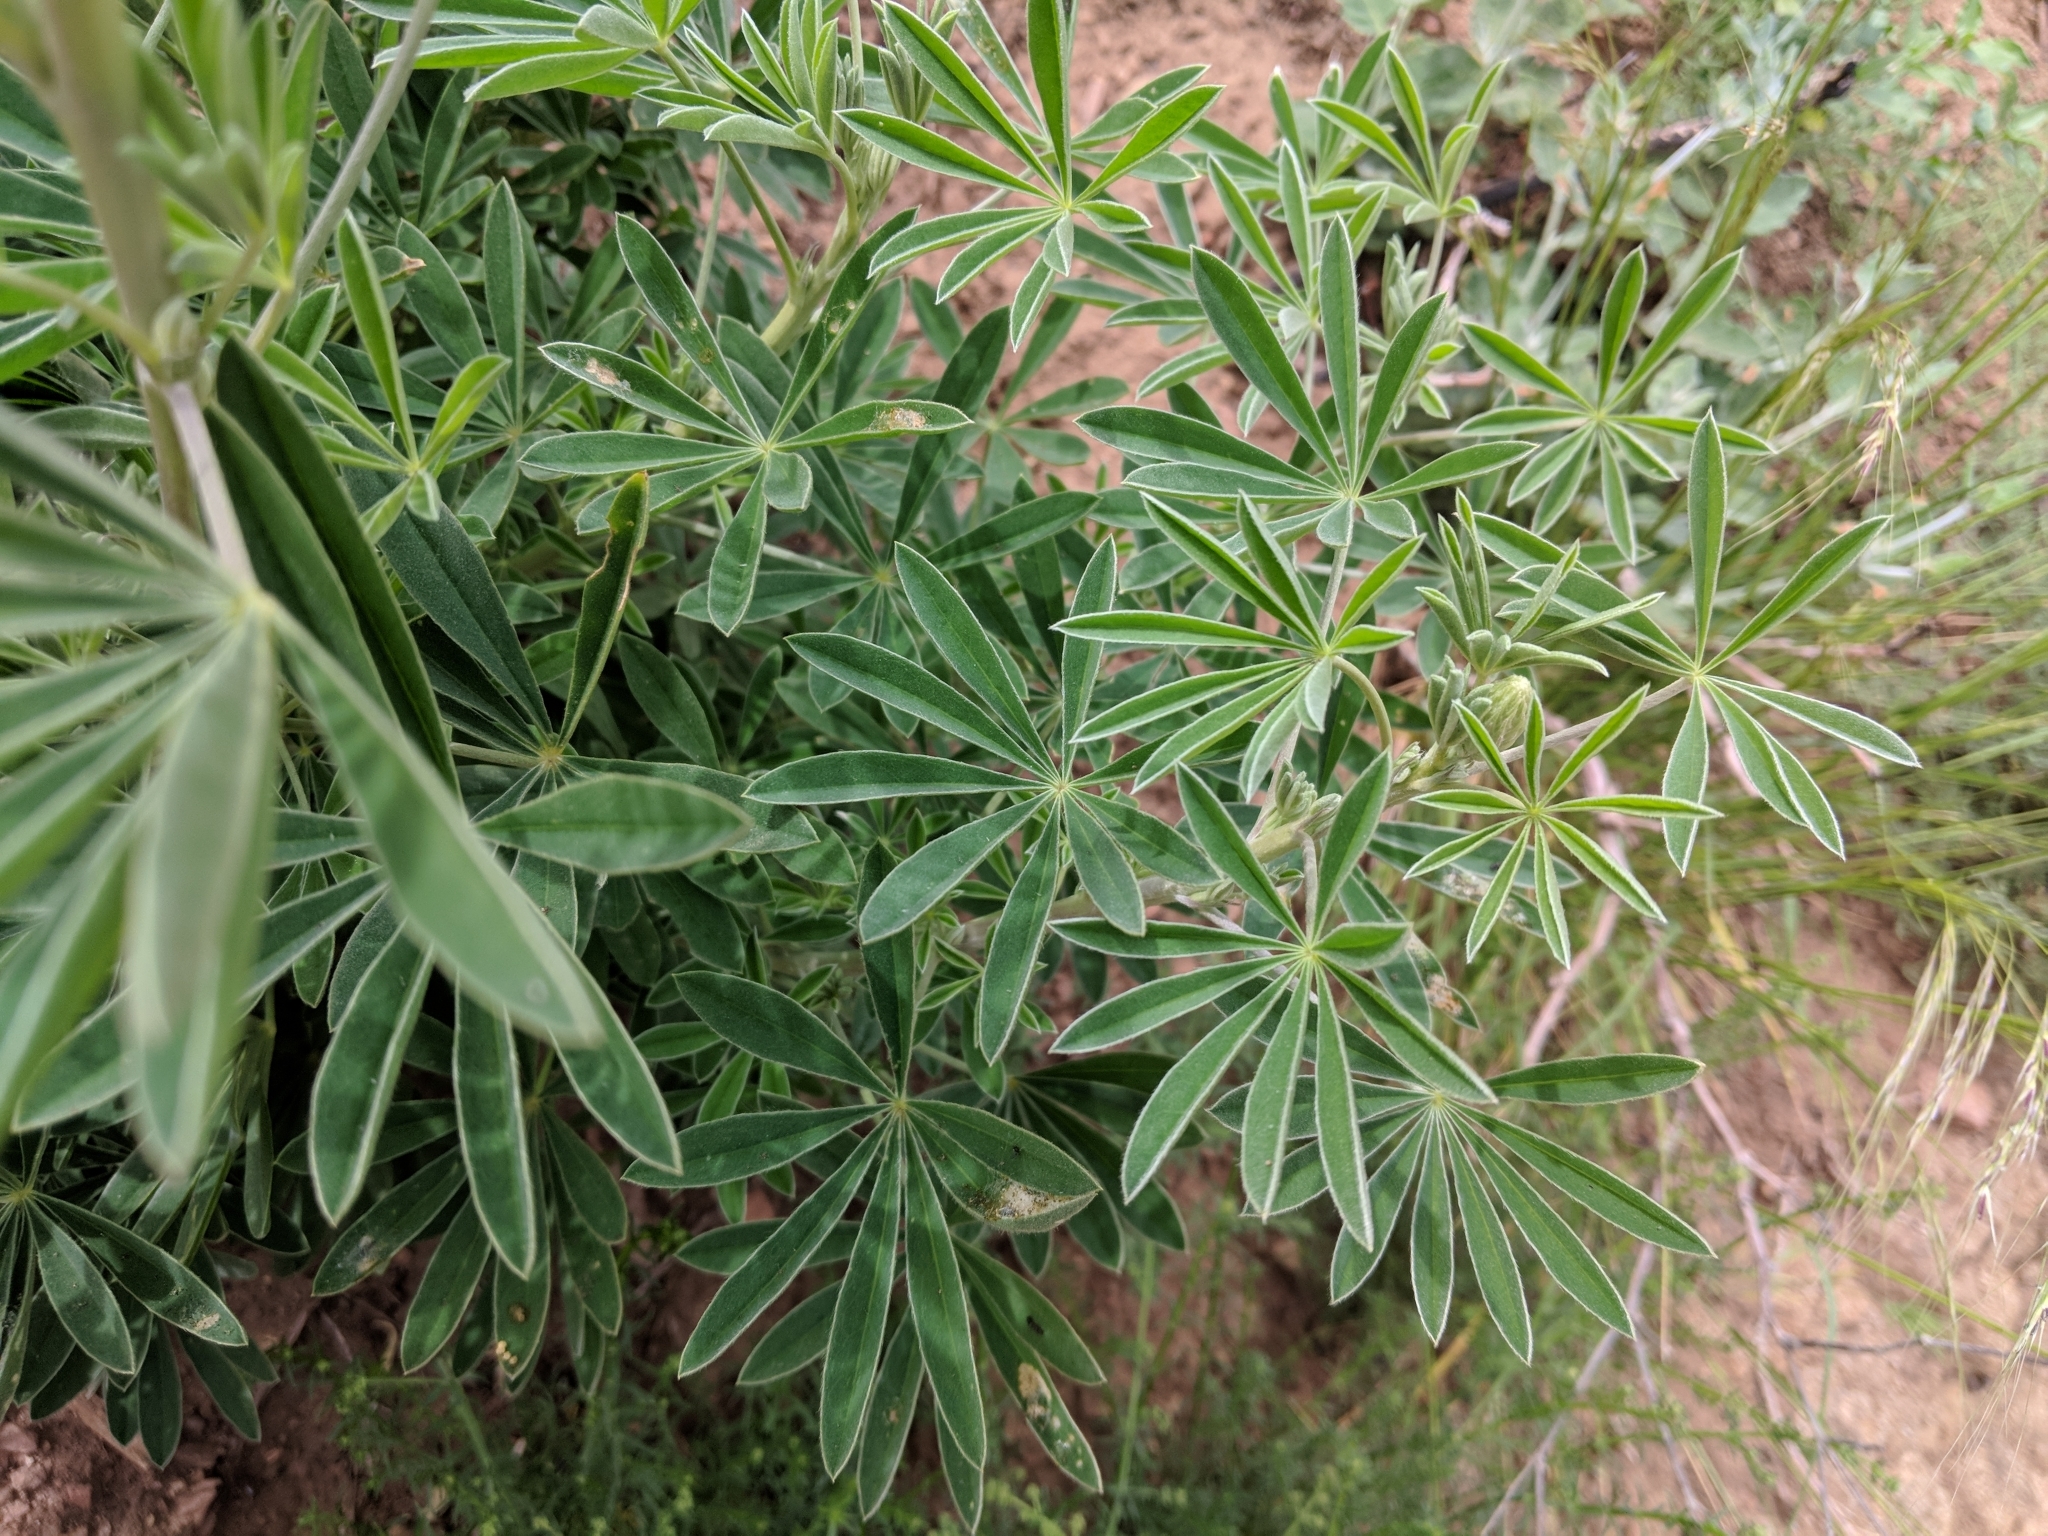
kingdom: Plantae
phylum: Tracheophyta
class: Magnoliopsida
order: Fabales
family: Fabaceae
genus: Lupinus
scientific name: Lupinus longifolius
